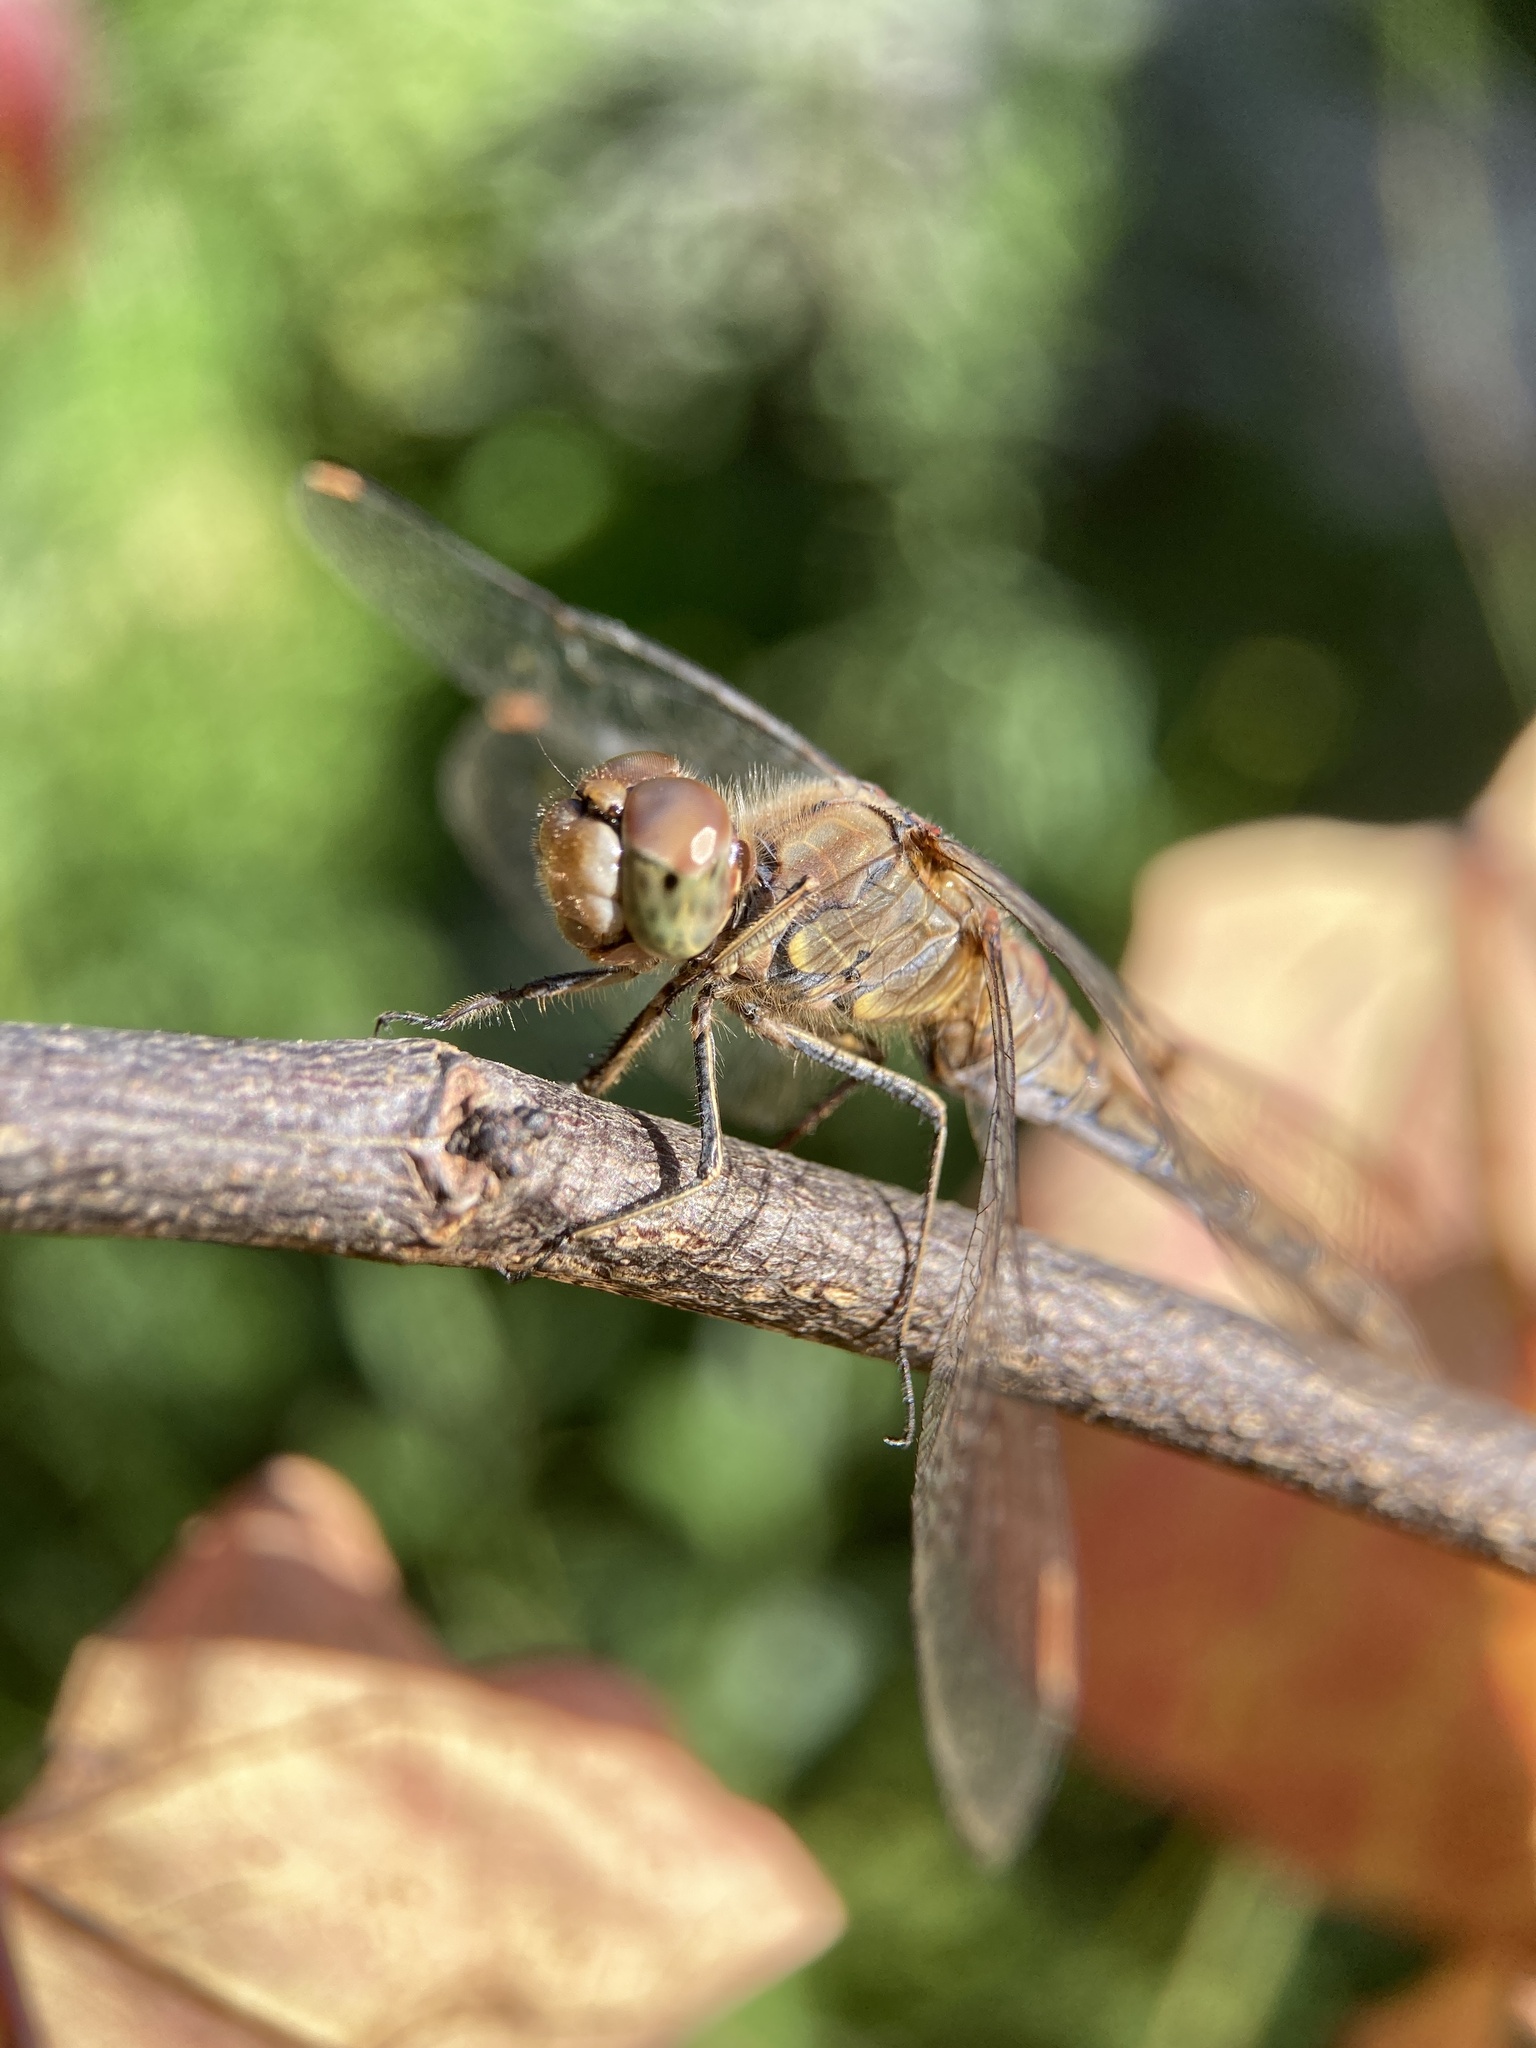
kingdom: Animalia
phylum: Arthropoda
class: Insecta
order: Odonata
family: Libellulidae
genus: Sympetrum
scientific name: Sympetrum striolatum
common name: Common darter
